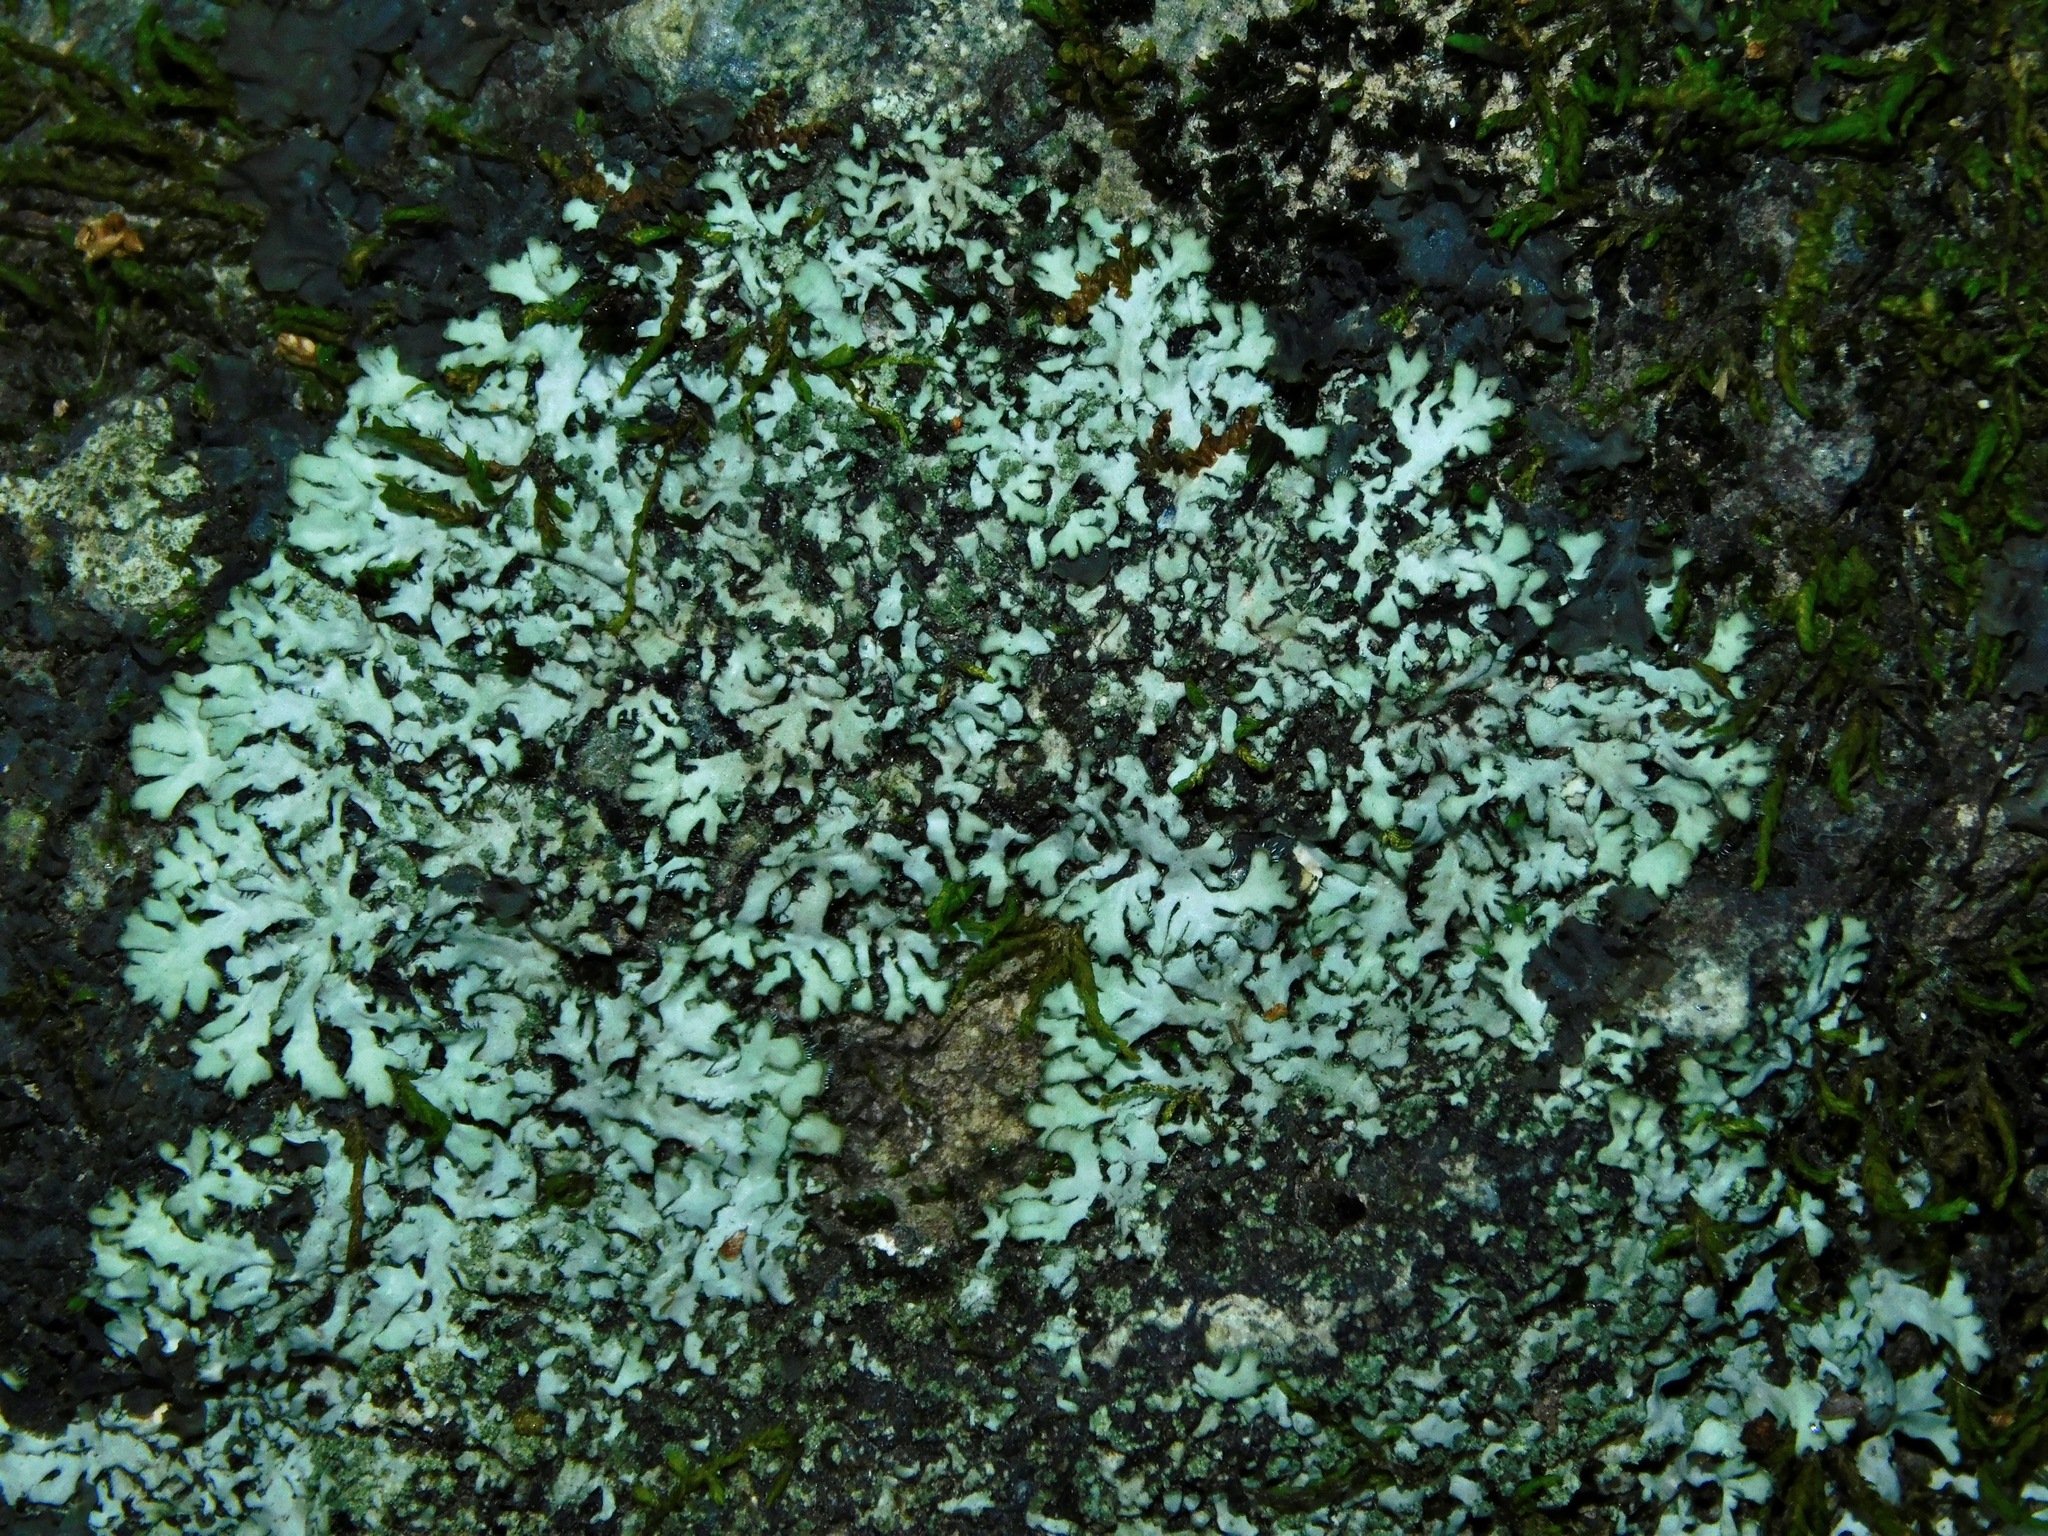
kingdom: Fungi
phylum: Ascomycota
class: Lecanoromycetes
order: Caliciales
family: Physciaceae
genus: Heterodermia
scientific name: Heterodermia pseudospeciosa
